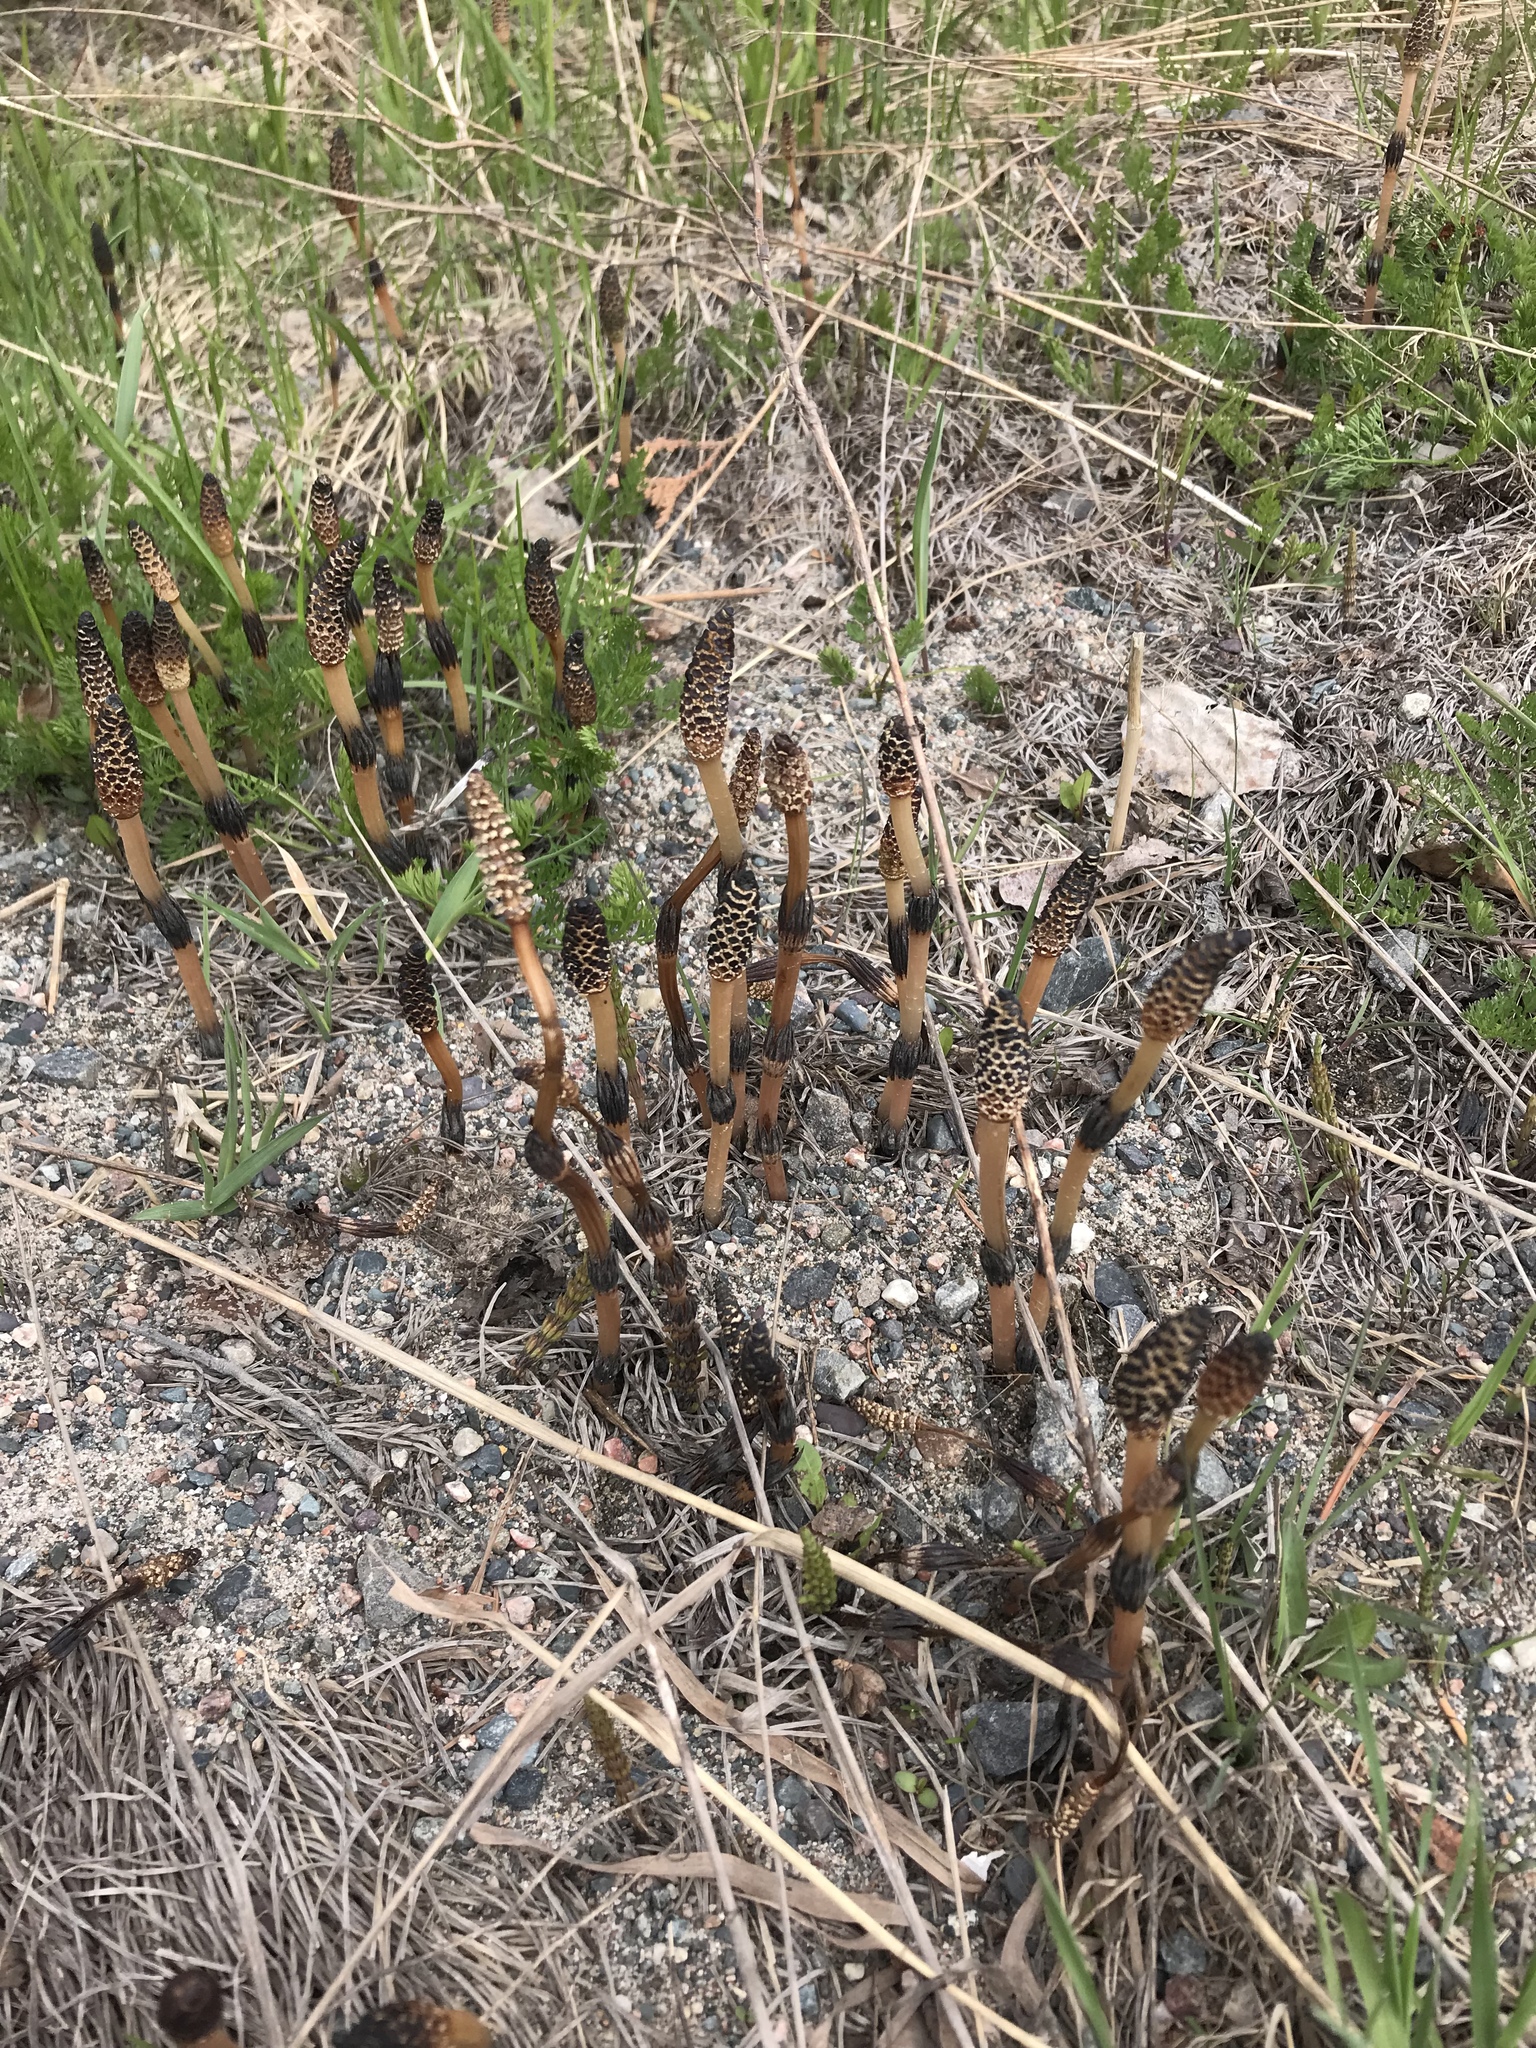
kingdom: Plantae
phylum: Tracheophyta
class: Polypodiopsida
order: Equisetales
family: Equisetaceae
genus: Equisetum
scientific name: Equisetum arvense
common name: Field horsetail
